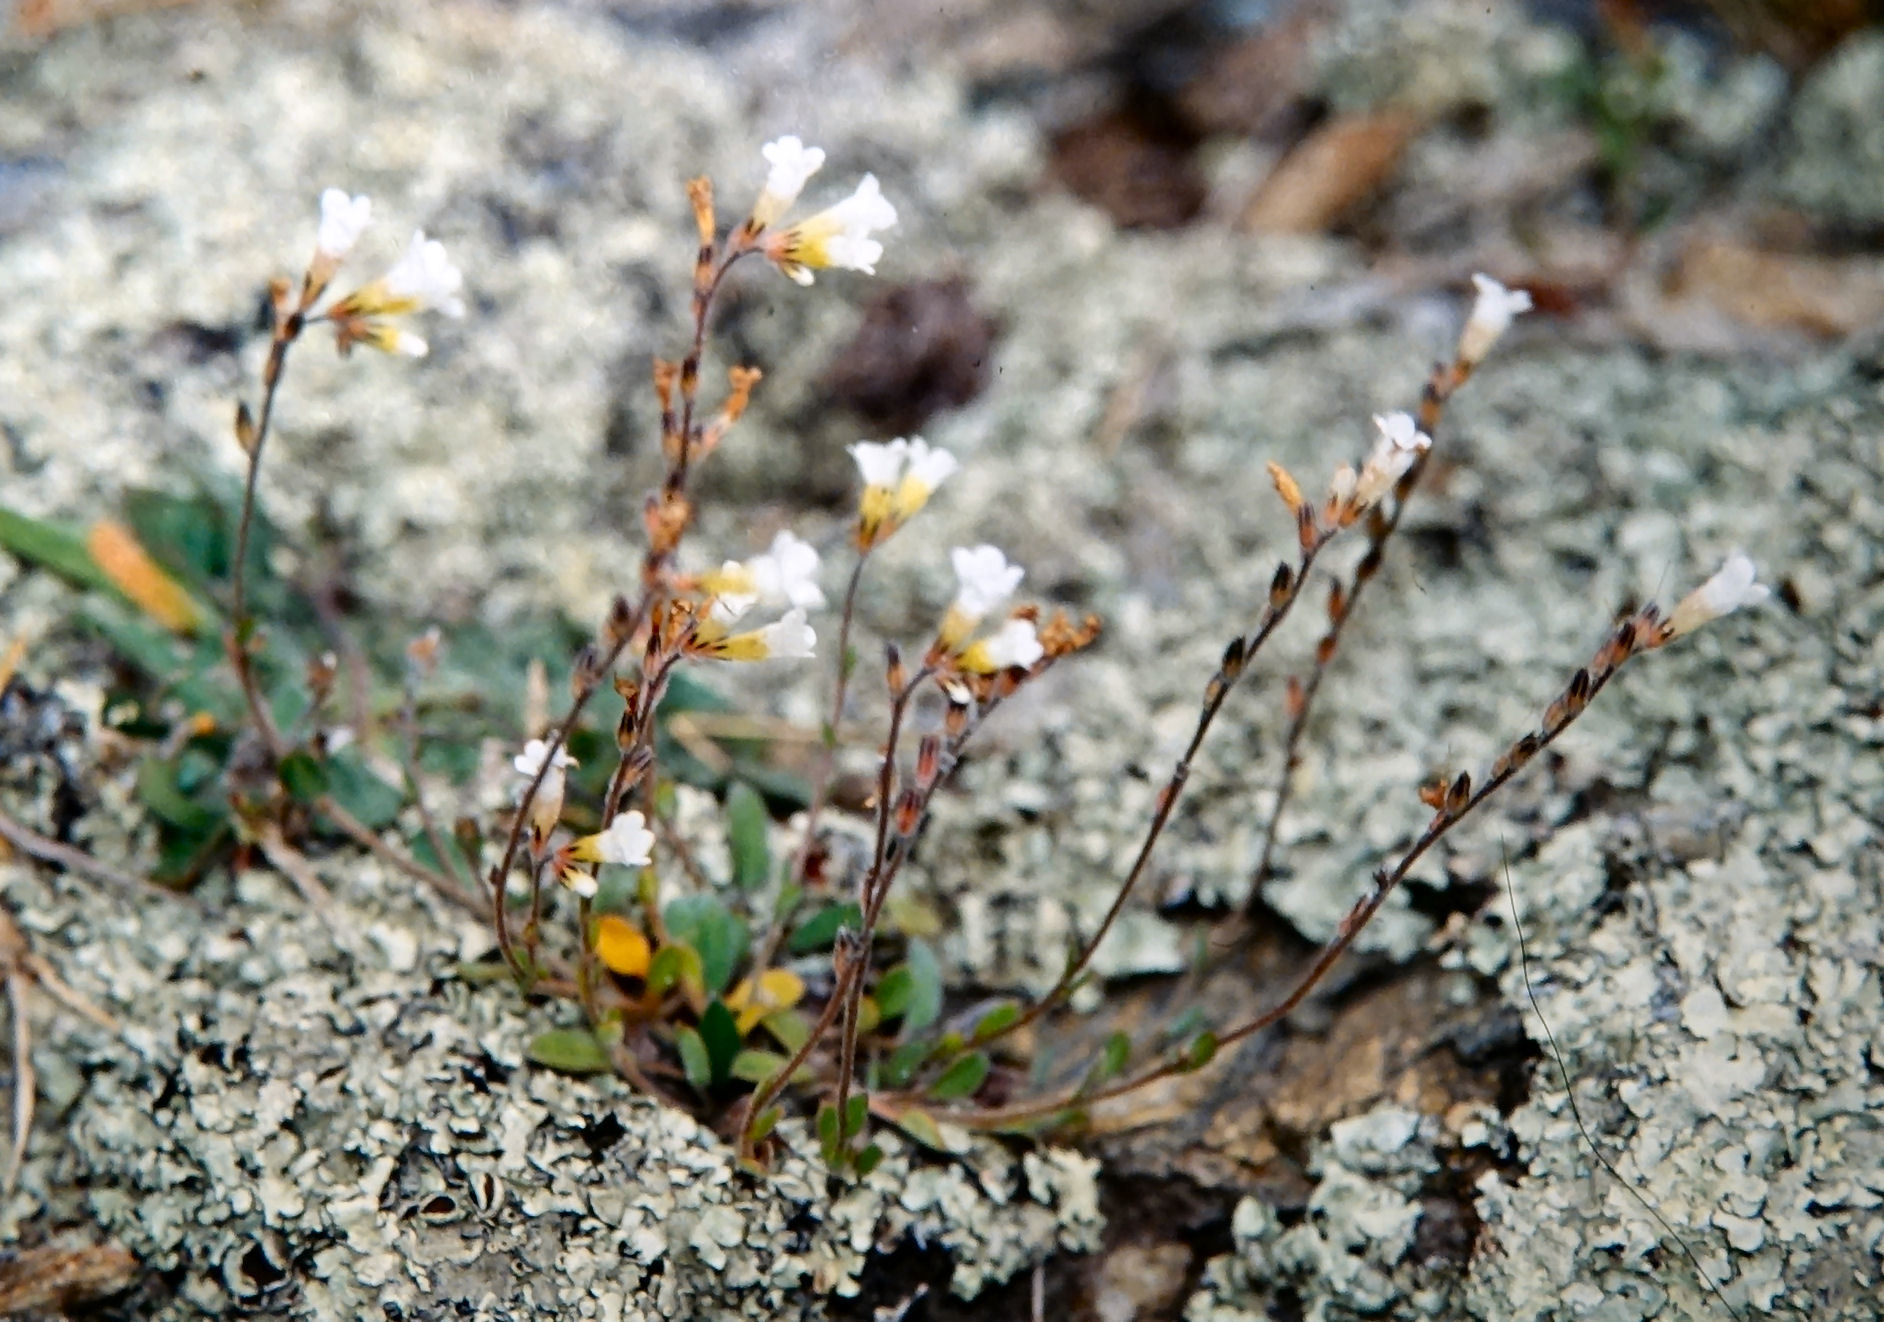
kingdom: Plantae
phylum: Tracheophyta
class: Magnoliopsida
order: Boraginales
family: Boraginaceae
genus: Myosotis
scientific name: Myosotis australis
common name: Australian forget-me-not
